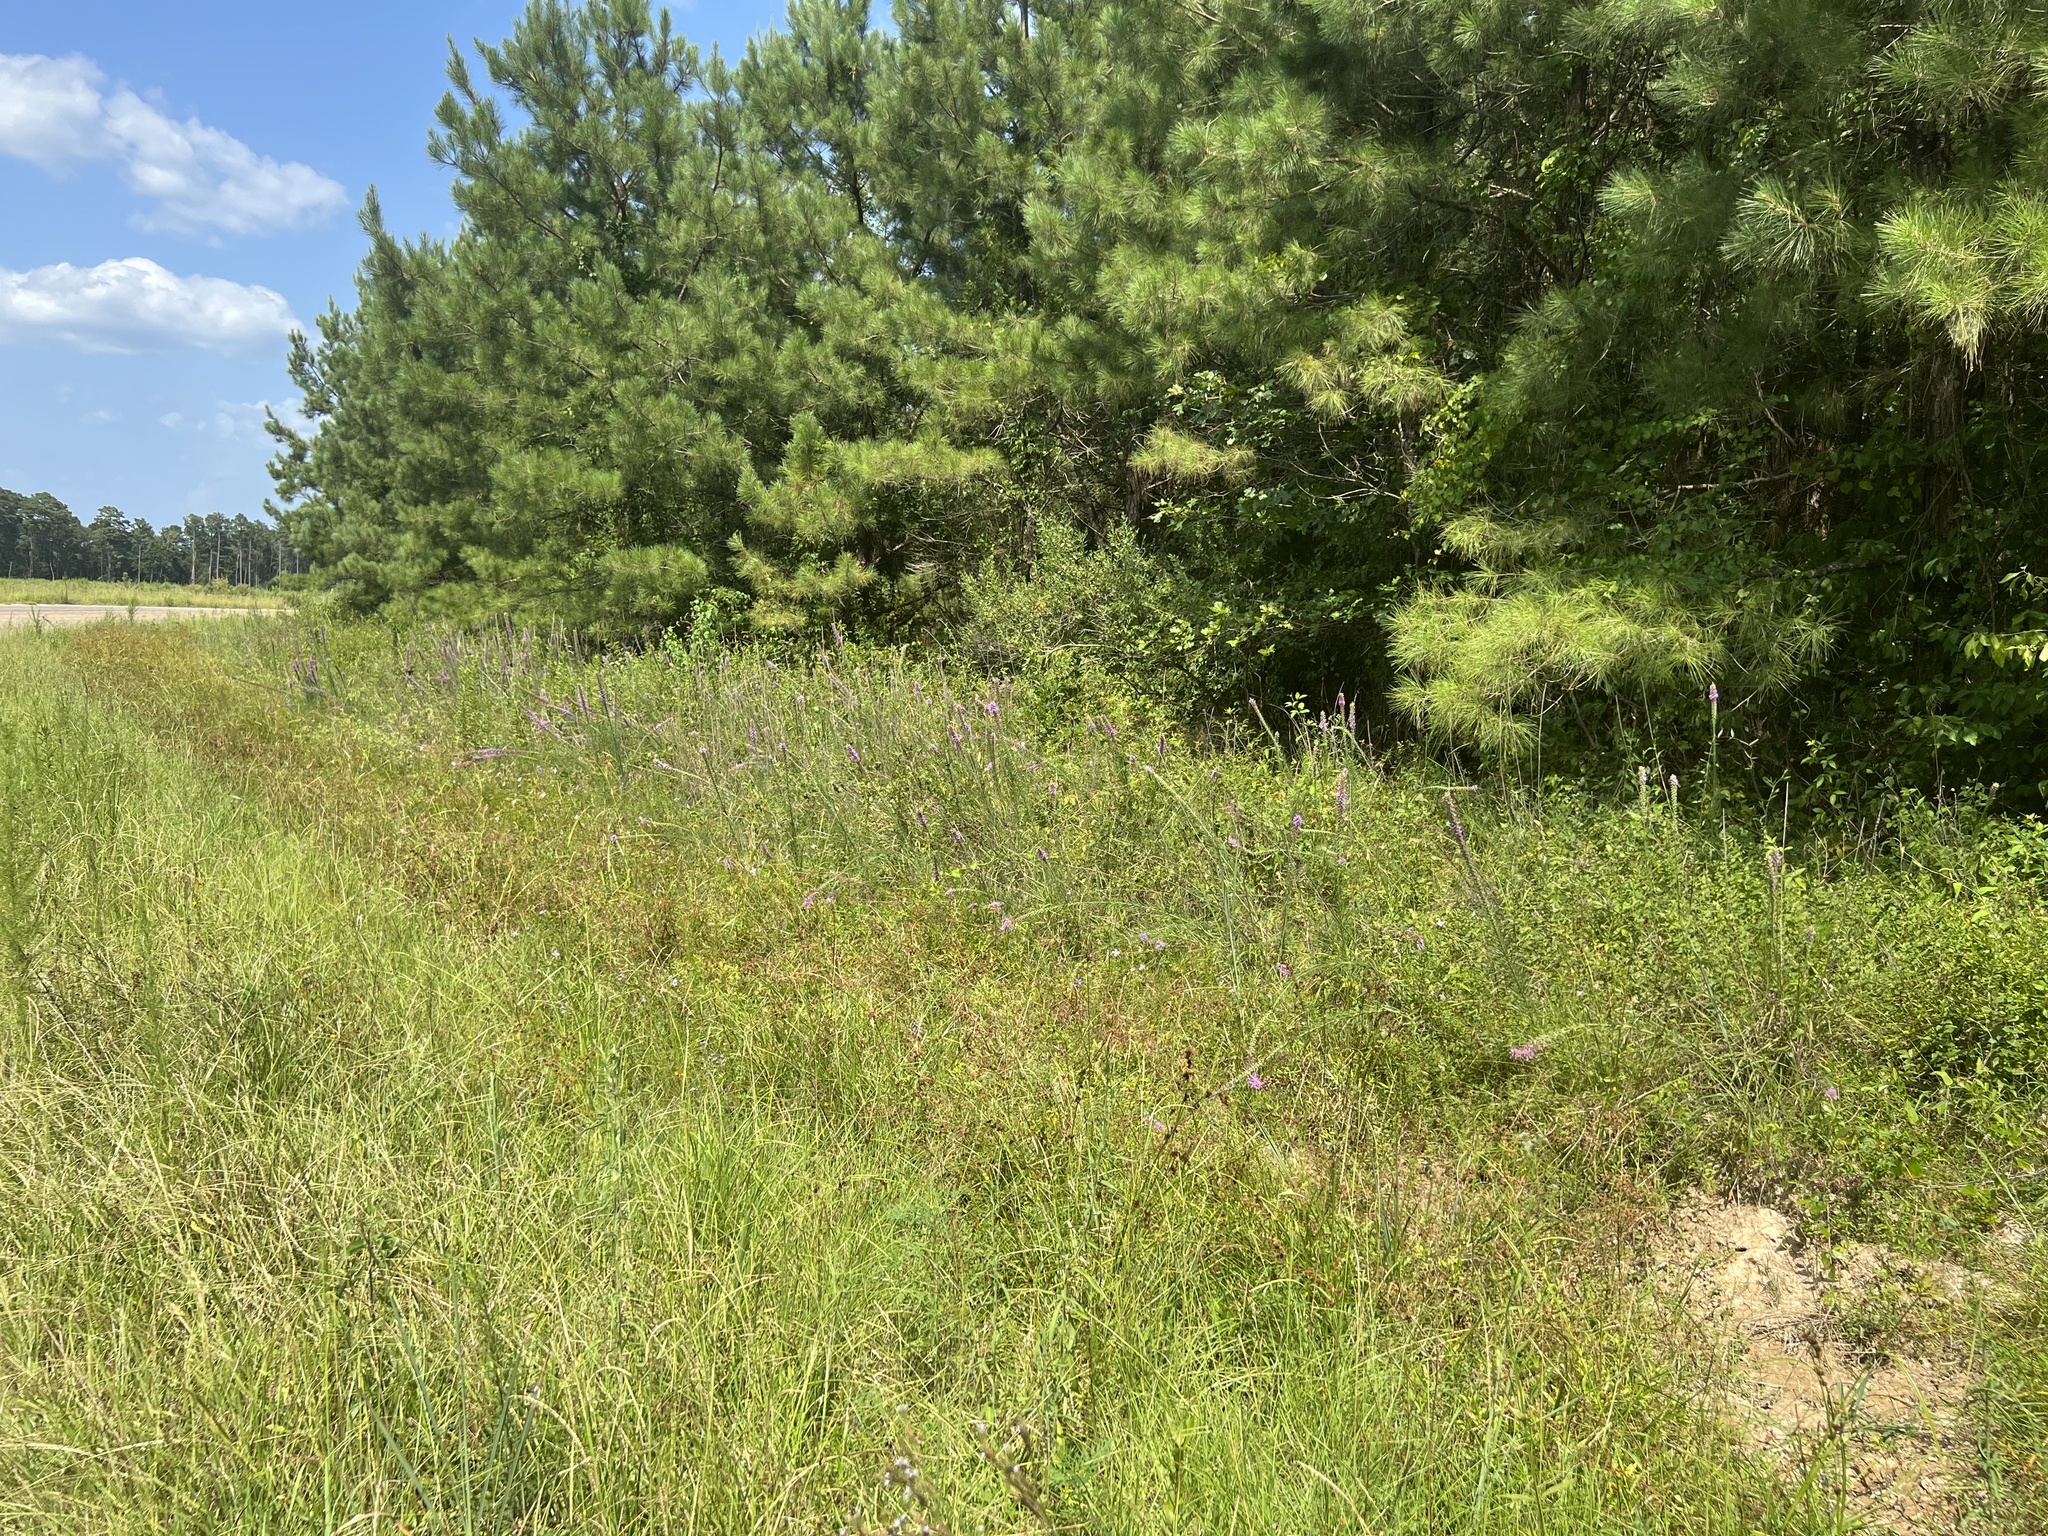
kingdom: Plantae
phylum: Tracheophyta
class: Magnoliopsida
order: Asterales
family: Asteraceae
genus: Liatris
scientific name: Liatris pycnostachya
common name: Cattail gayfeather
